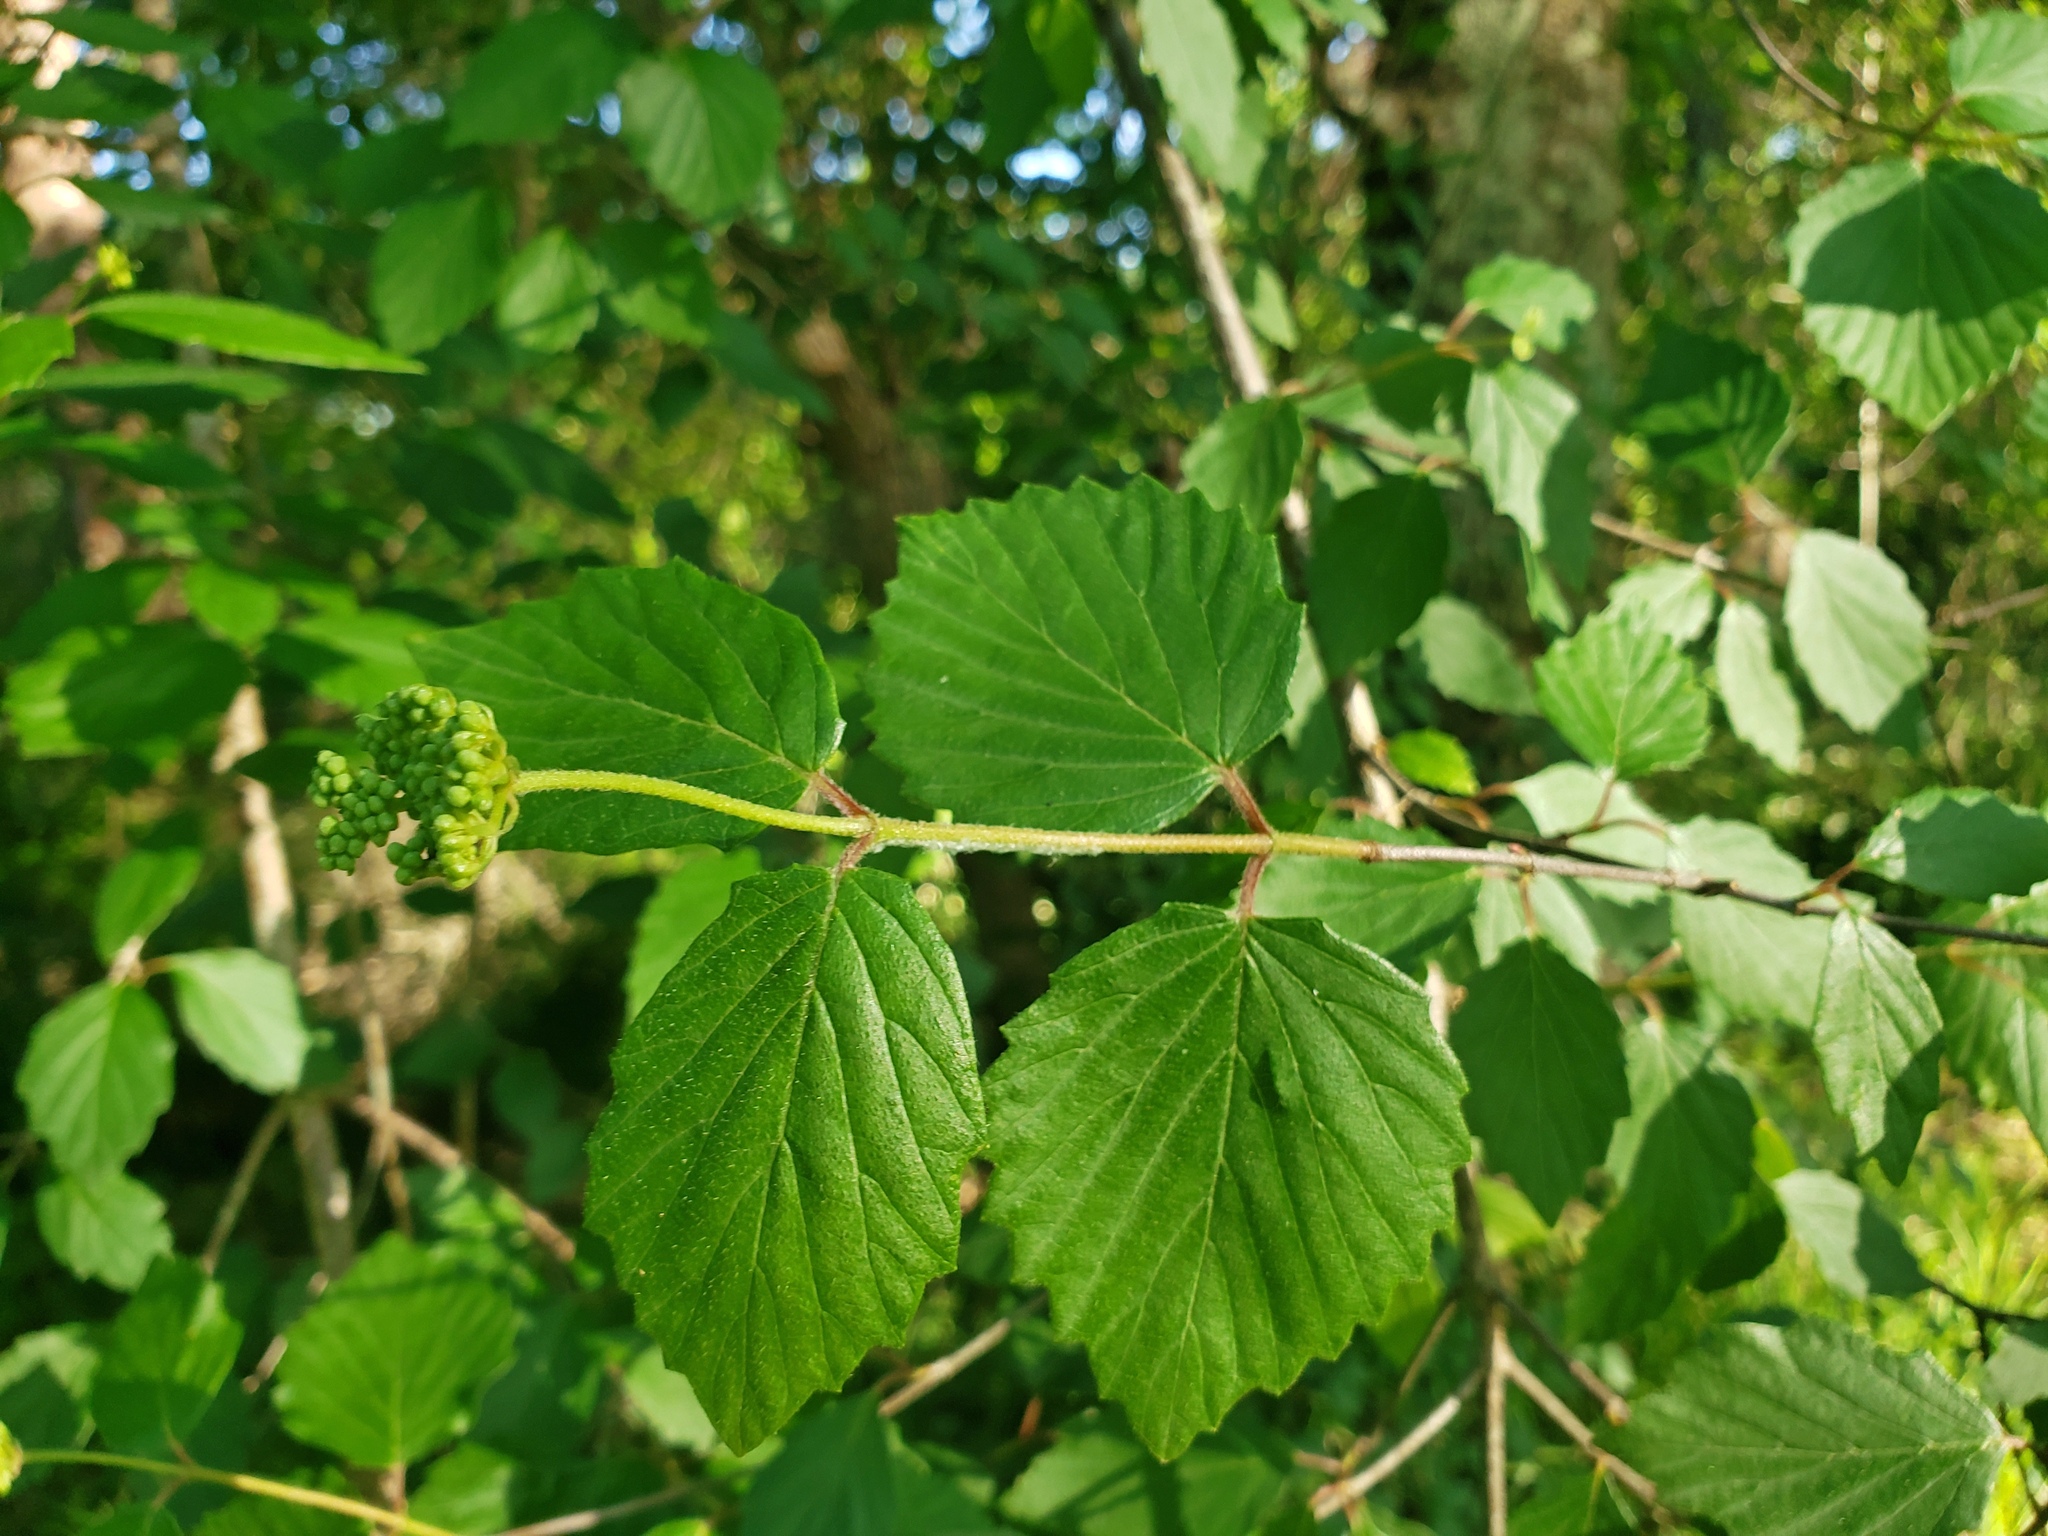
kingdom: Plantae
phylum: Tracheophyta
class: Magnoliopsida
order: Dipsacales
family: Viburnaceae
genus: Viburnum
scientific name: Viburnum dentatum
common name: Arrow-wood
